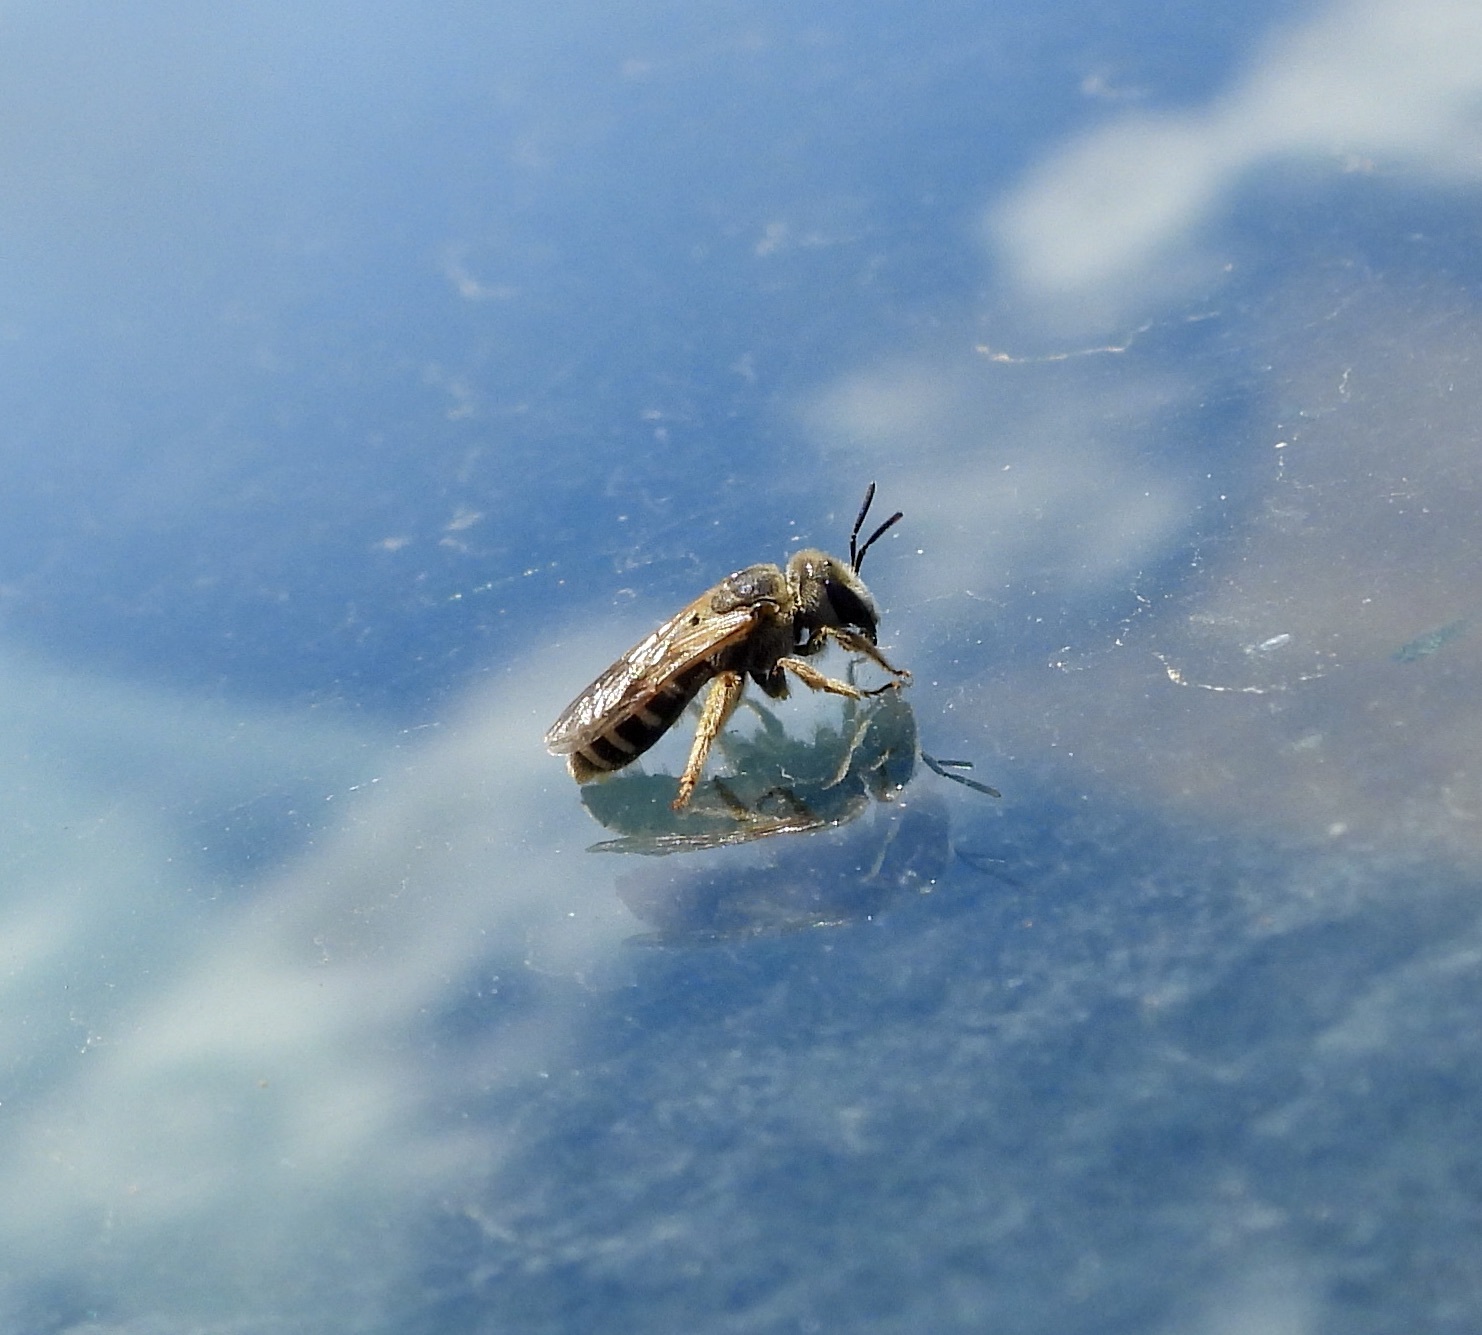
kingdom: Animalia
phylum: Arthropoda
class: Insecta
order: Hymenoptera
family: Halictidae
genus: Halictus
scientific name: Halictus ligatus
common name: Ligated furrow bee
